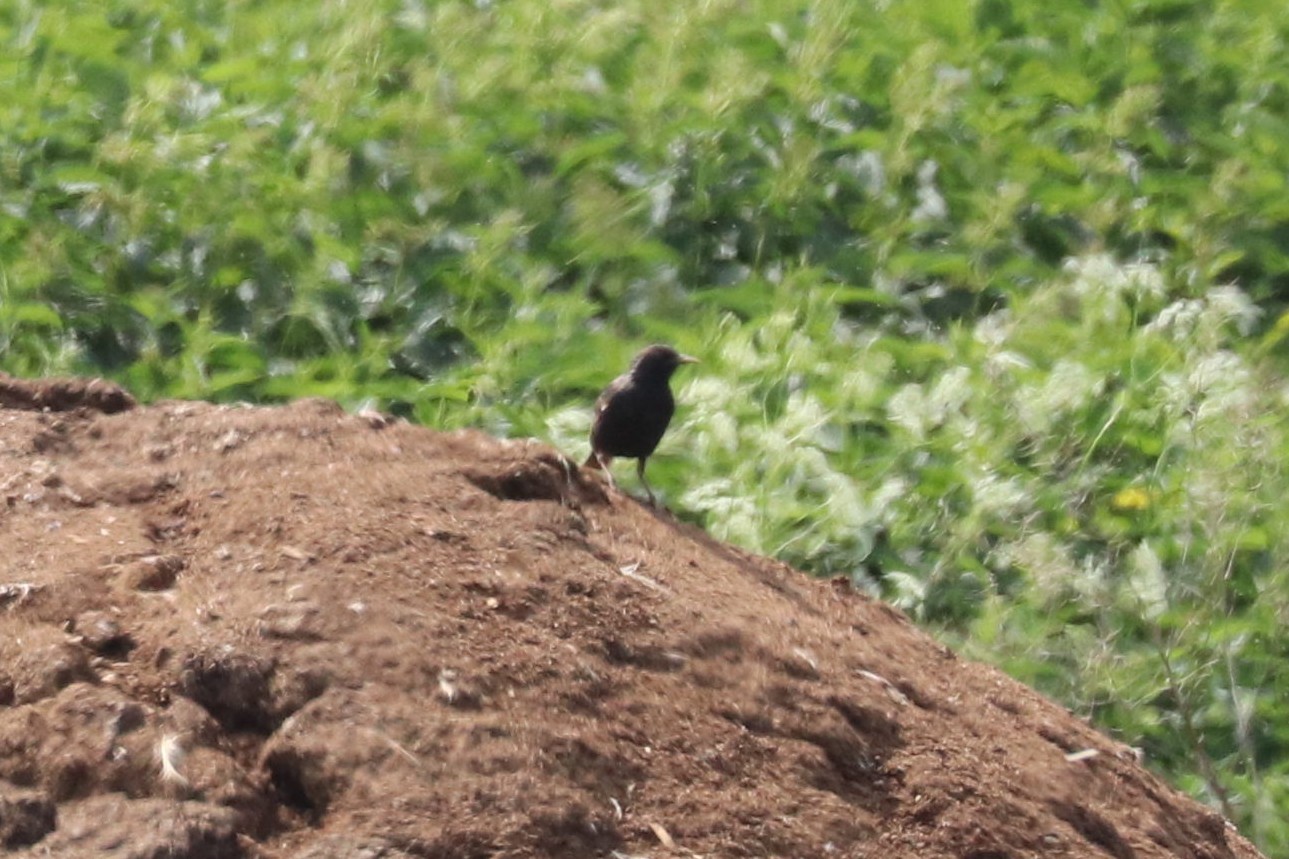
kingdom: Animalia
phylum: Chordata
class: Aves
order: Passeriformes
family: Sturnidae
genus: Sturnus
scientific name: Sturnus vulgaris
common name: Common starling
